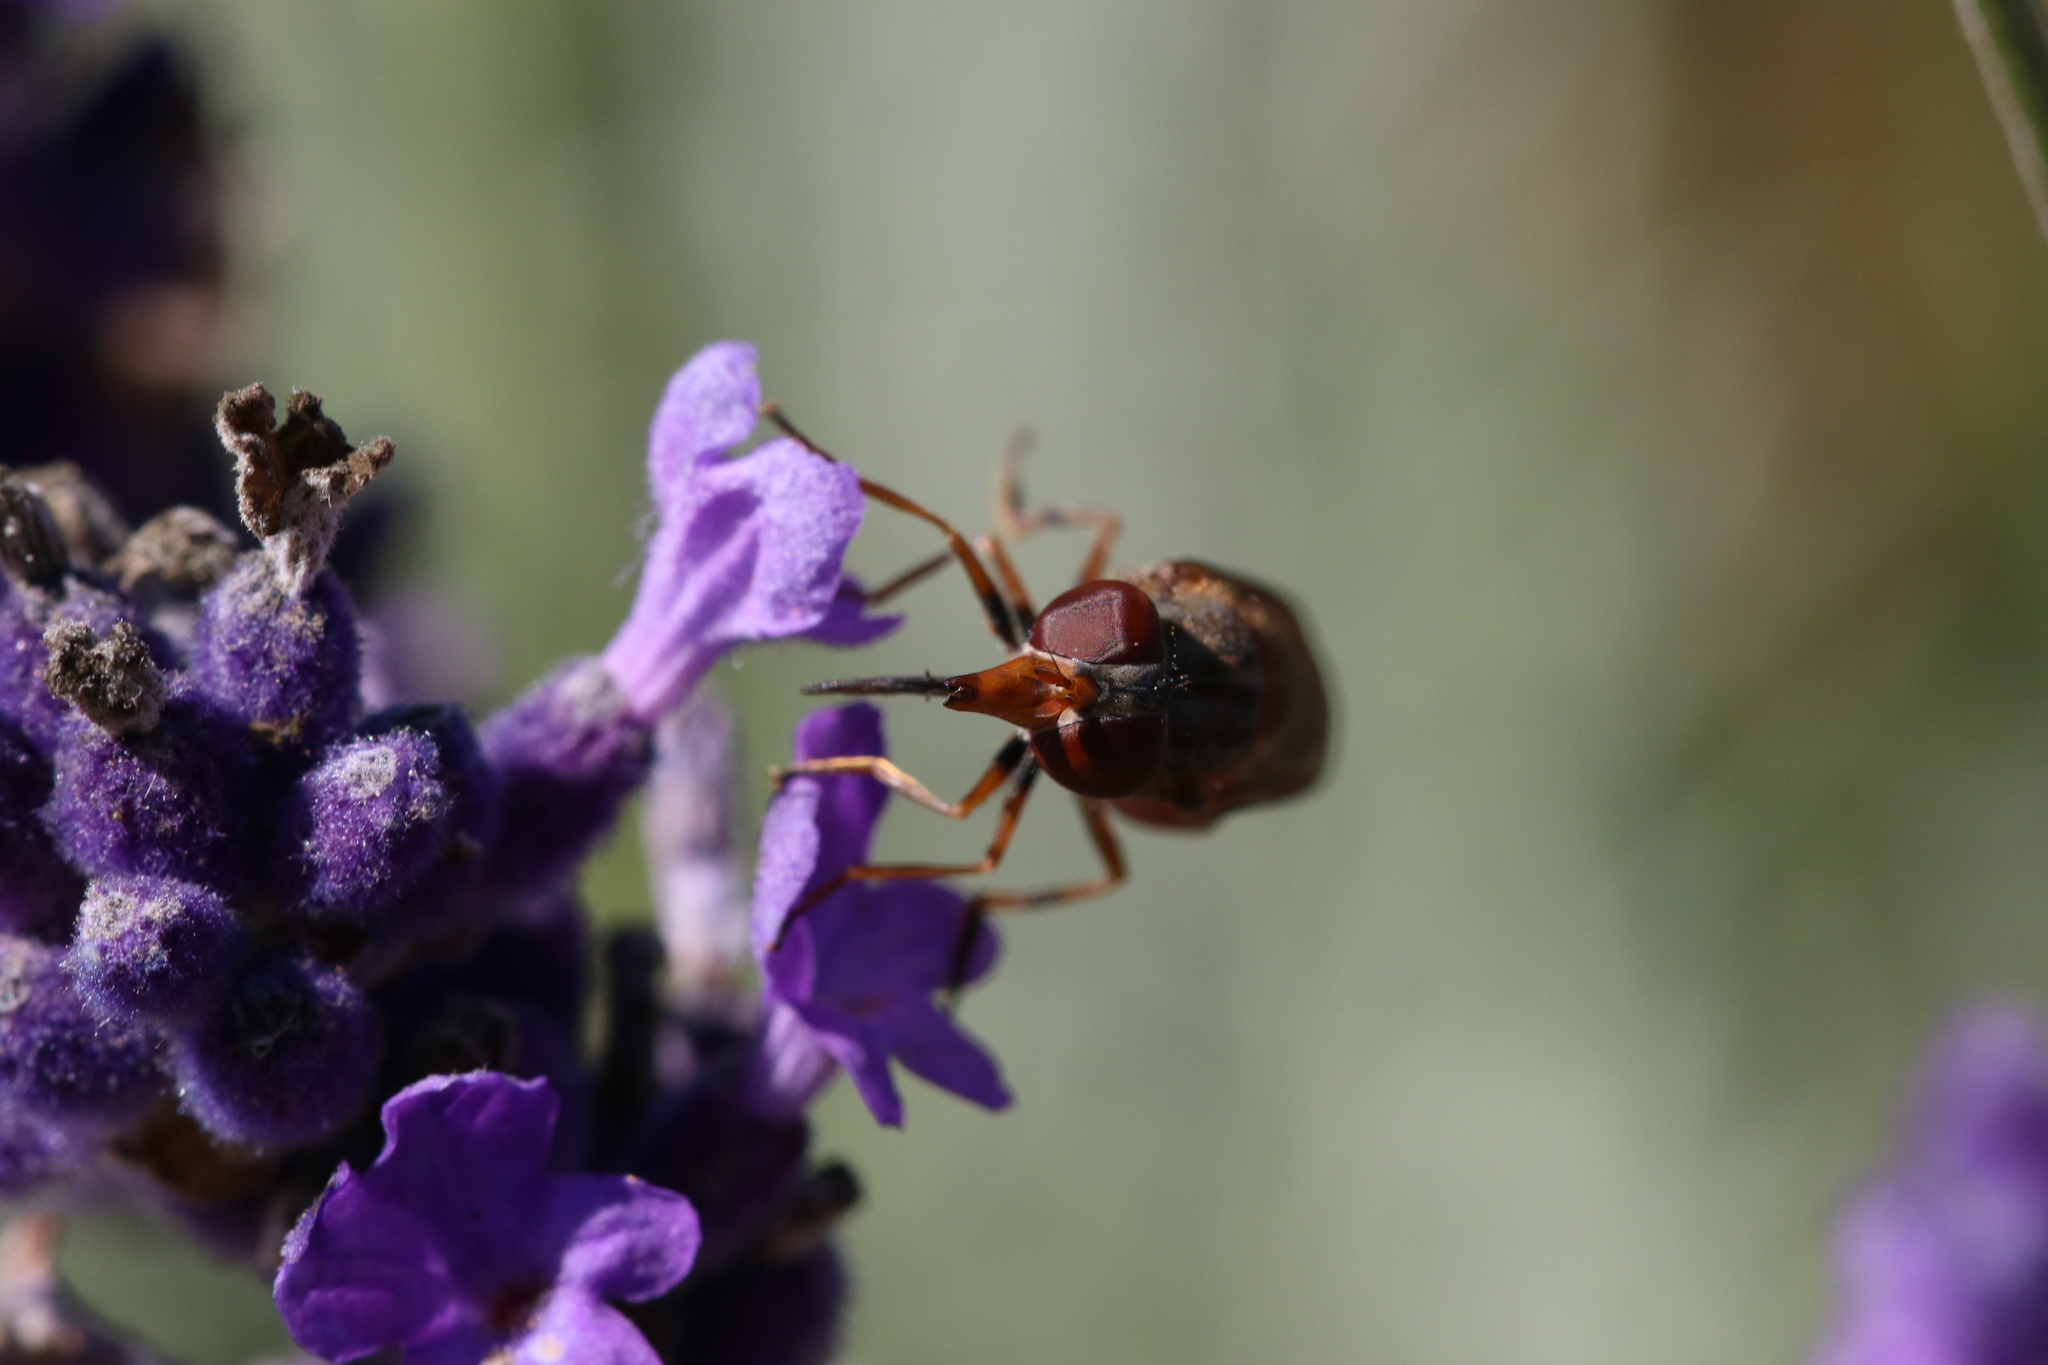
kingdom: Animalia
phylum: Arthropoda
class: Insecta
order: Diptera
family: Syrphidae
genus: Rhingia
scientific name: Rhingia campestris
